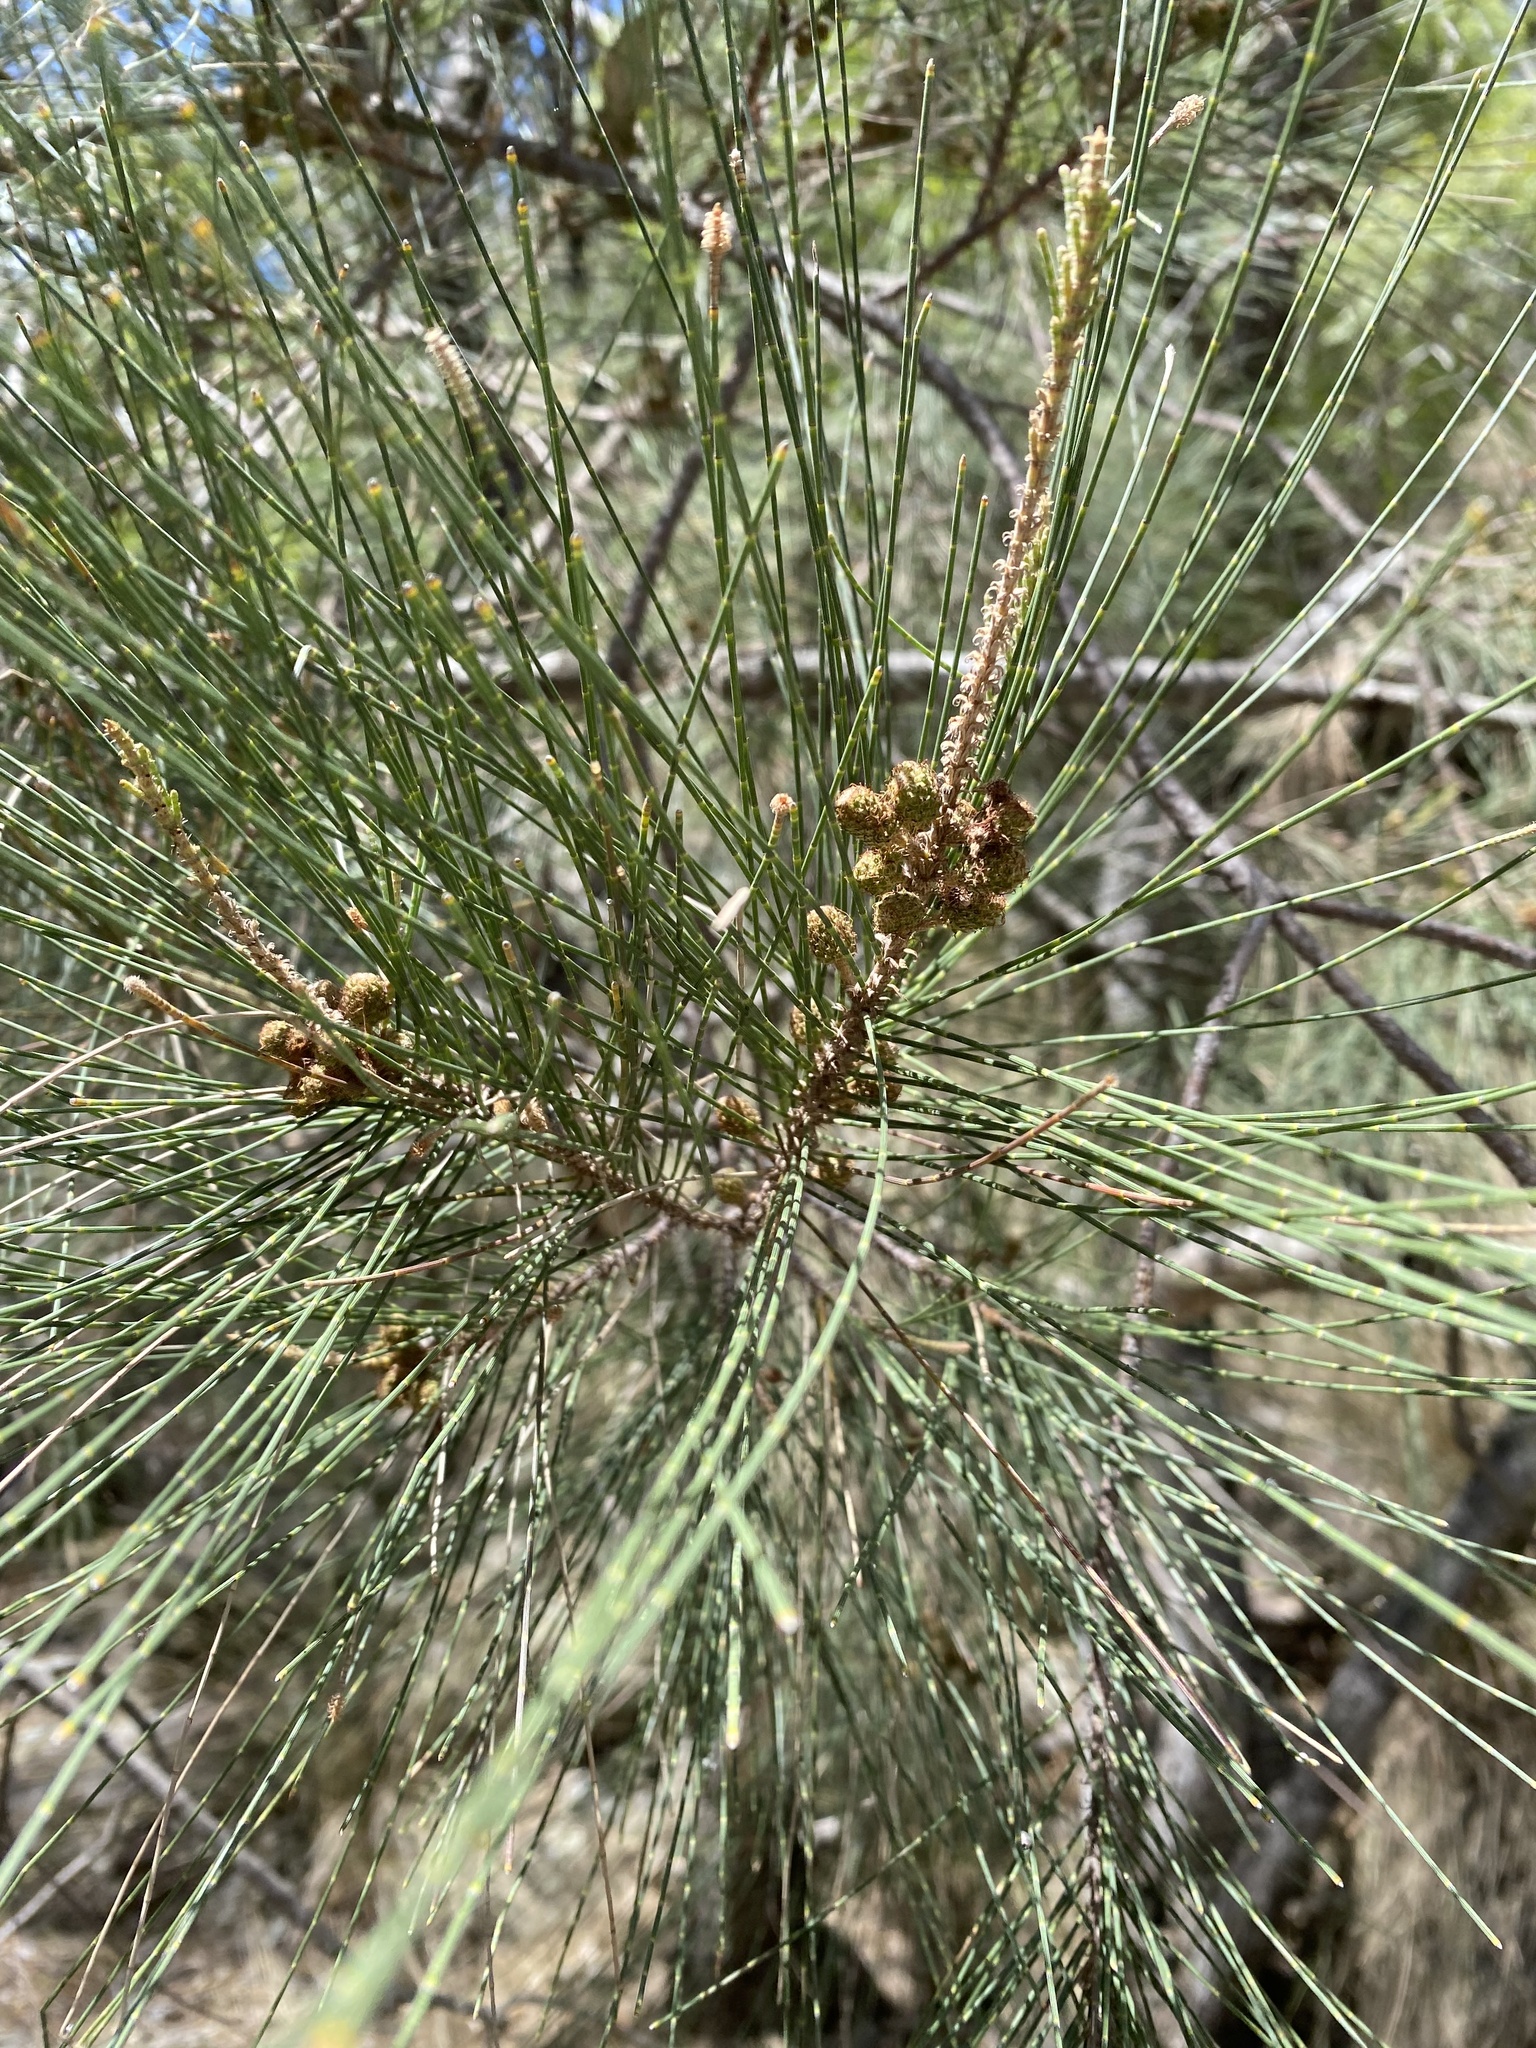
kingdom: Plantae
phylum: Tracheophyta
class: Magnoliopsida
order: Fagales
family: Casuarinaceae
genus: Casuarina
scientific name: Casuarina cunninghamiana
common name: River sheoak
